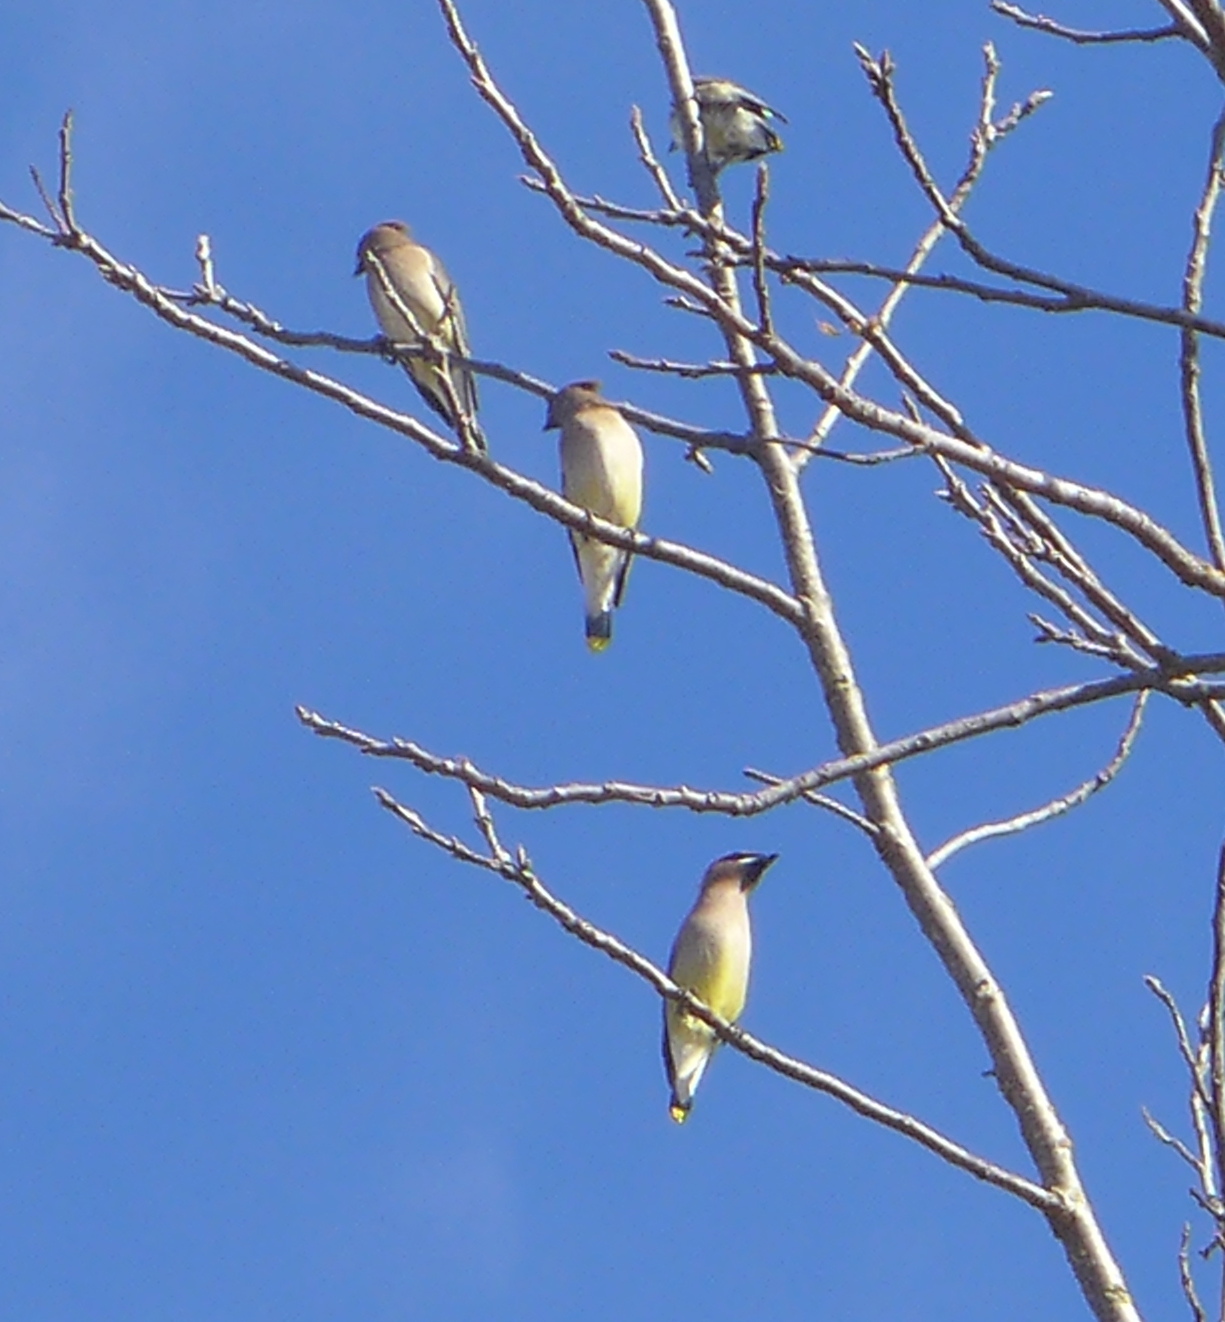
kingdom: Animalia
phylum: Chordata
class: Aves
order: Passeriformes
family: Bombycillidae
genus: Bombycilla
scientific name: Bombycilla cedrorum
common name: Cedar waxwing
